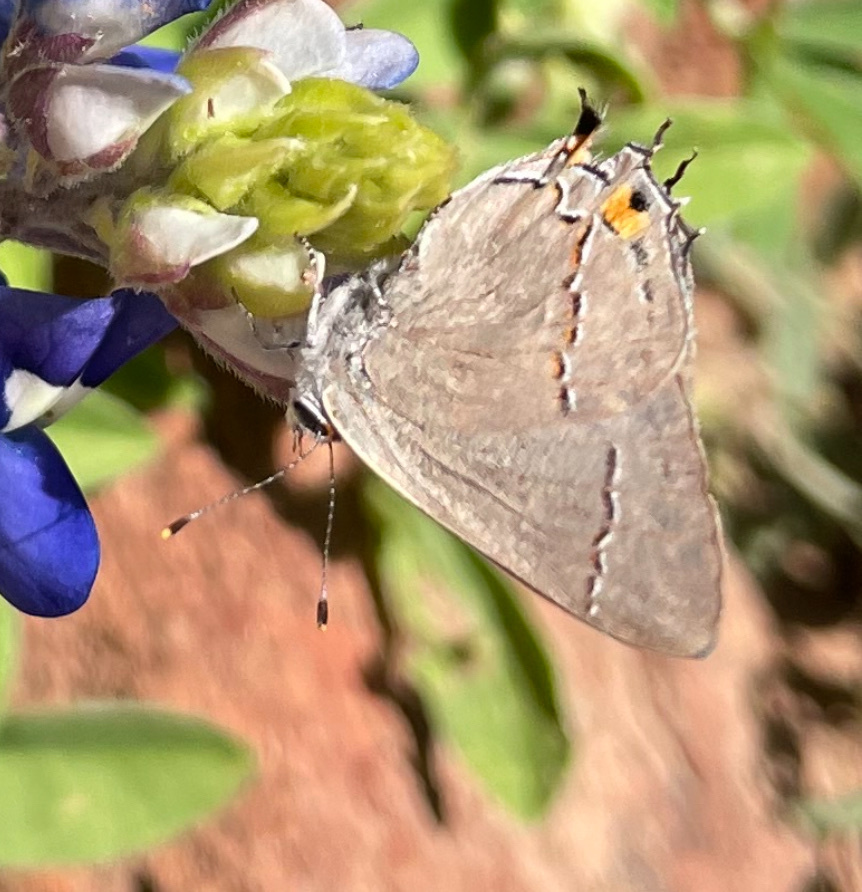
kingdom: Animalia
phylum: Arthropoda
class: Insecta
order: Lepidoptera
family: Lycaenidae
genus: Strymon
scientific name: Strymon melinus
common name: Gray hairstreak
